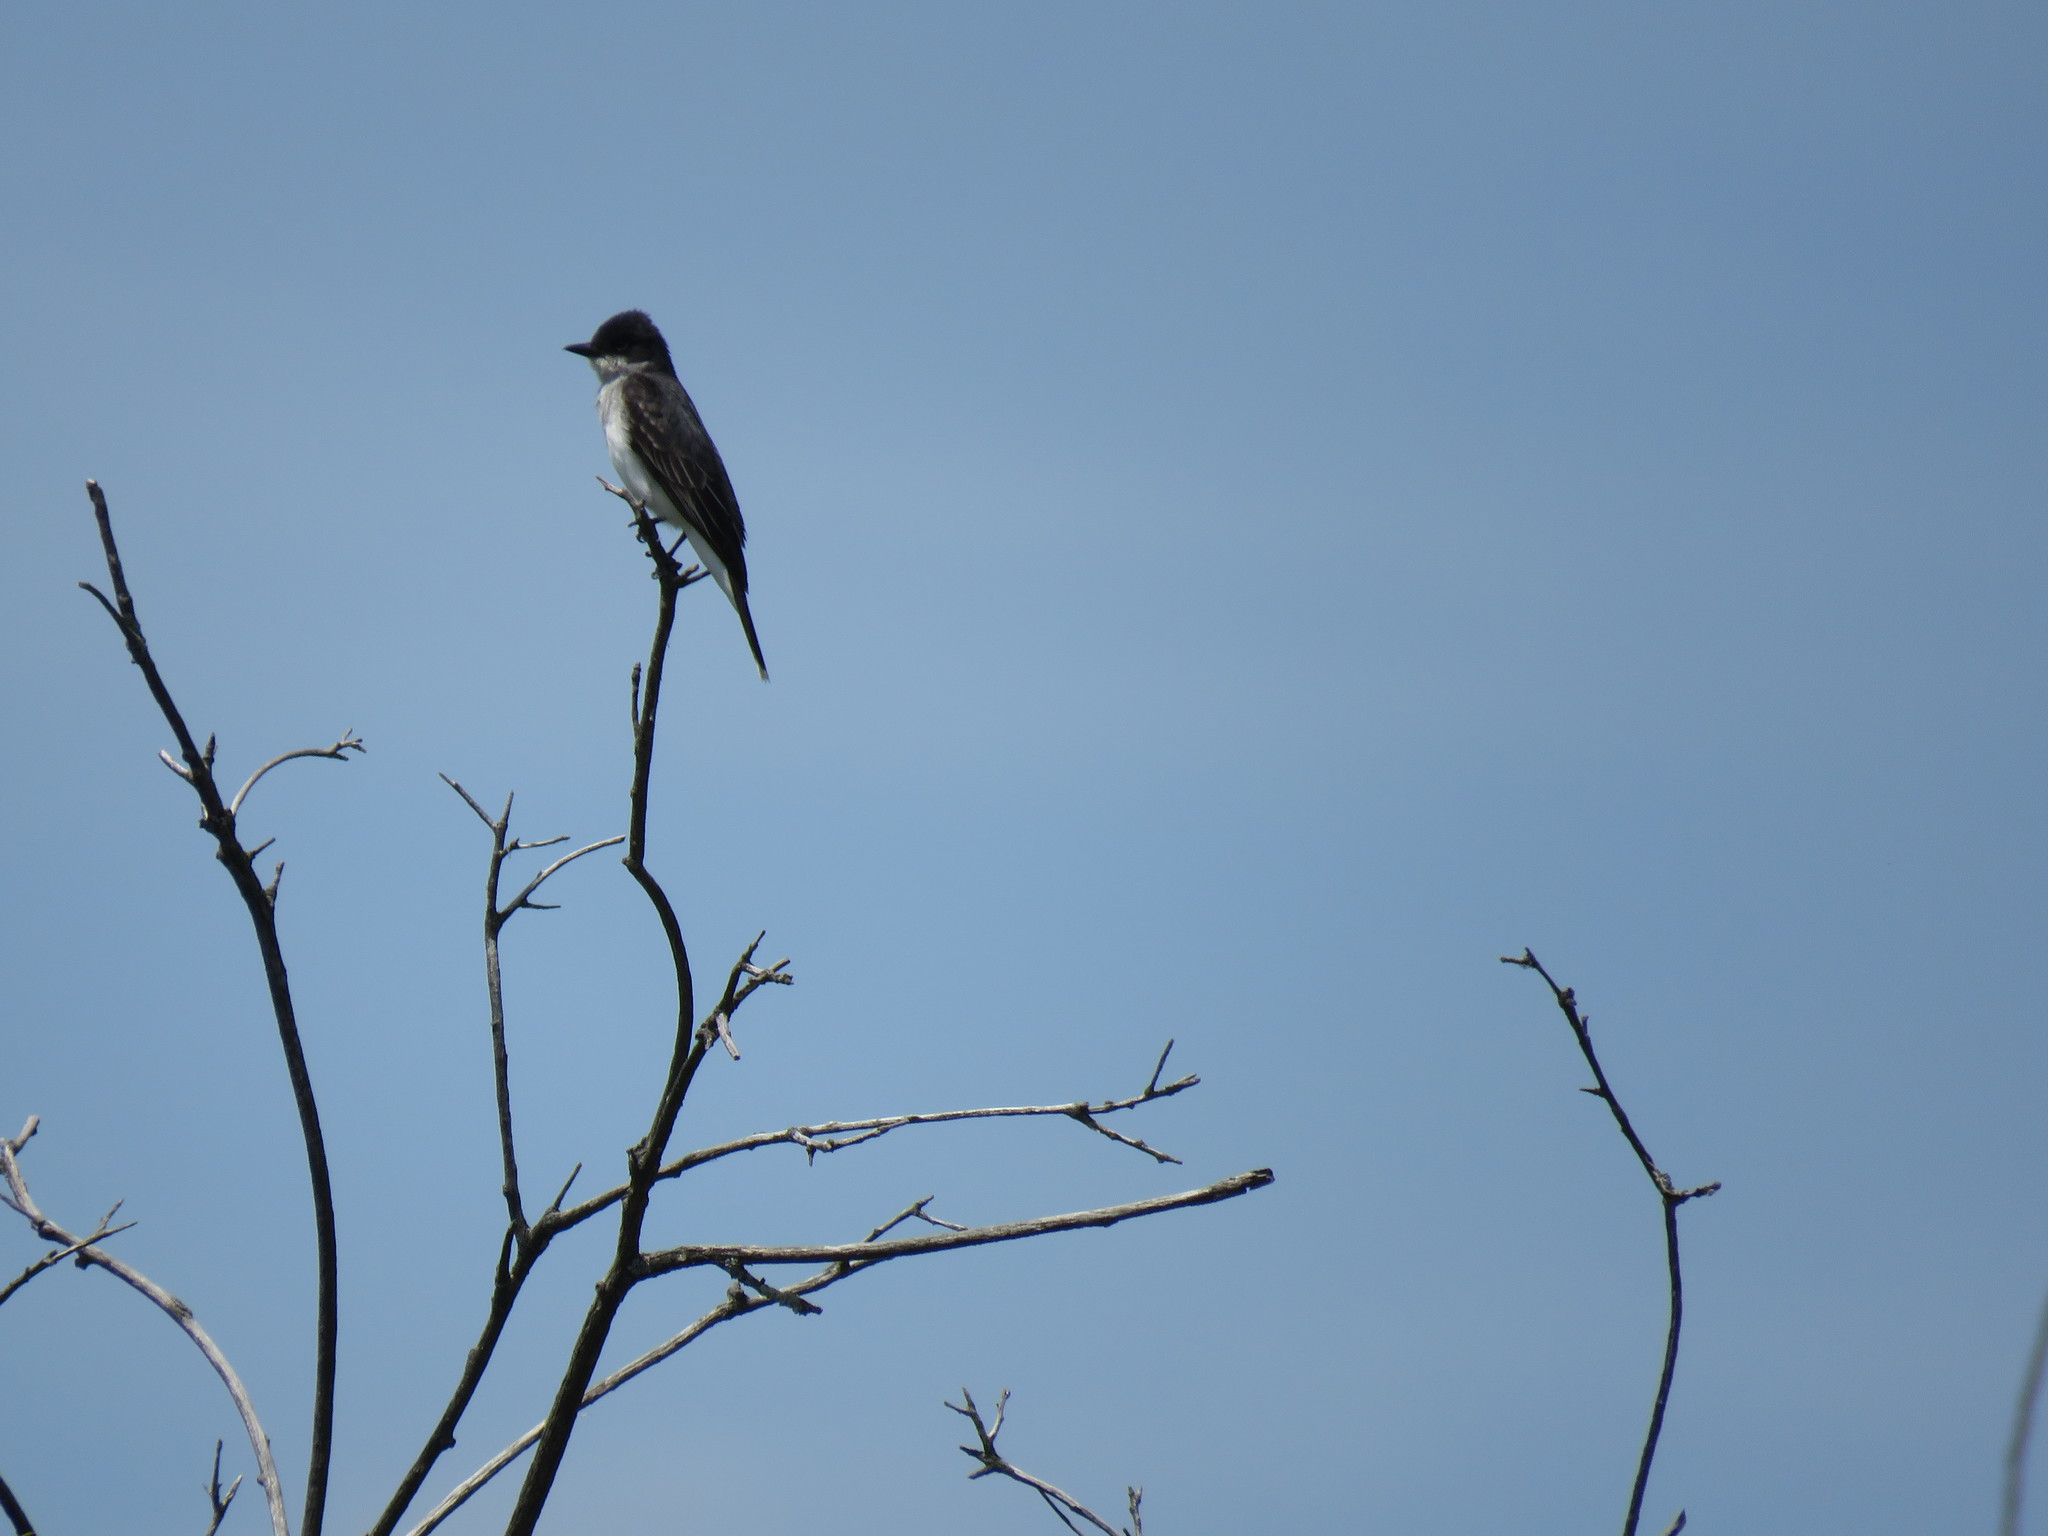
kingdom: Animalia
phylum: Chordata
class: Aves
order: Passeriformes
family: Tyrannidae
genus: Tyrannus
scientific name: Tyrannus tyrannus
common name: Eastern kingbird
